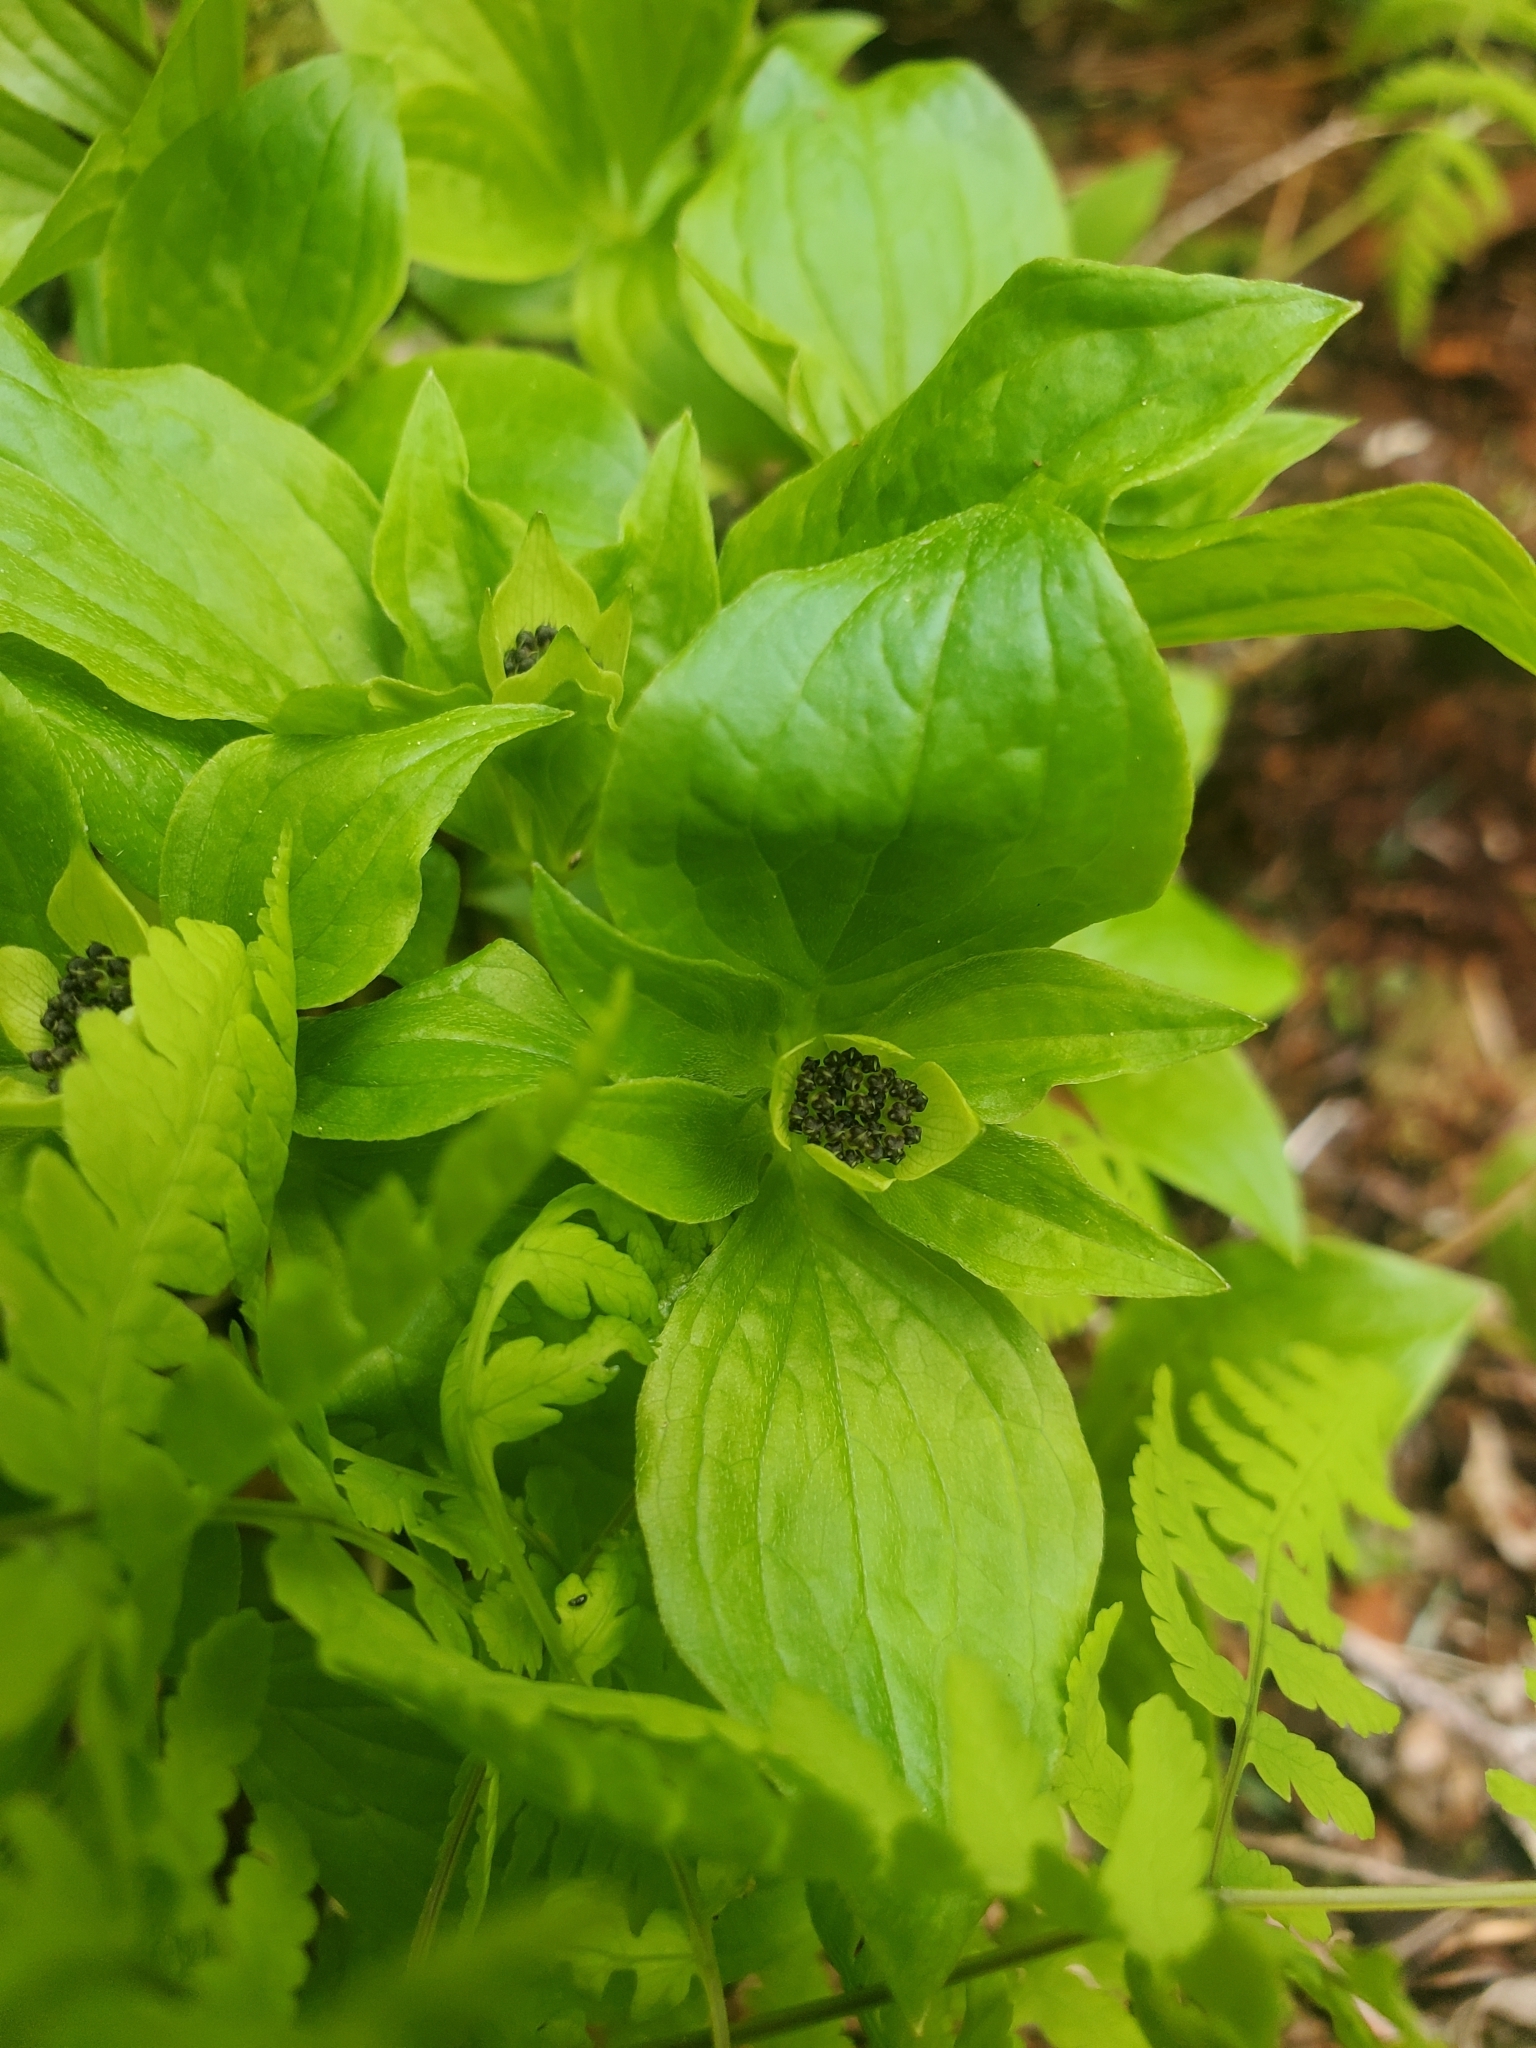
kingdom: Plantae
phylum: Tracheophyta
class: Magnoliopsida
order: Cornales
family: Cornaceae
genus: Cornus
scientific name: Cornus unalaschkensis
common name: Alaska bunchberry
